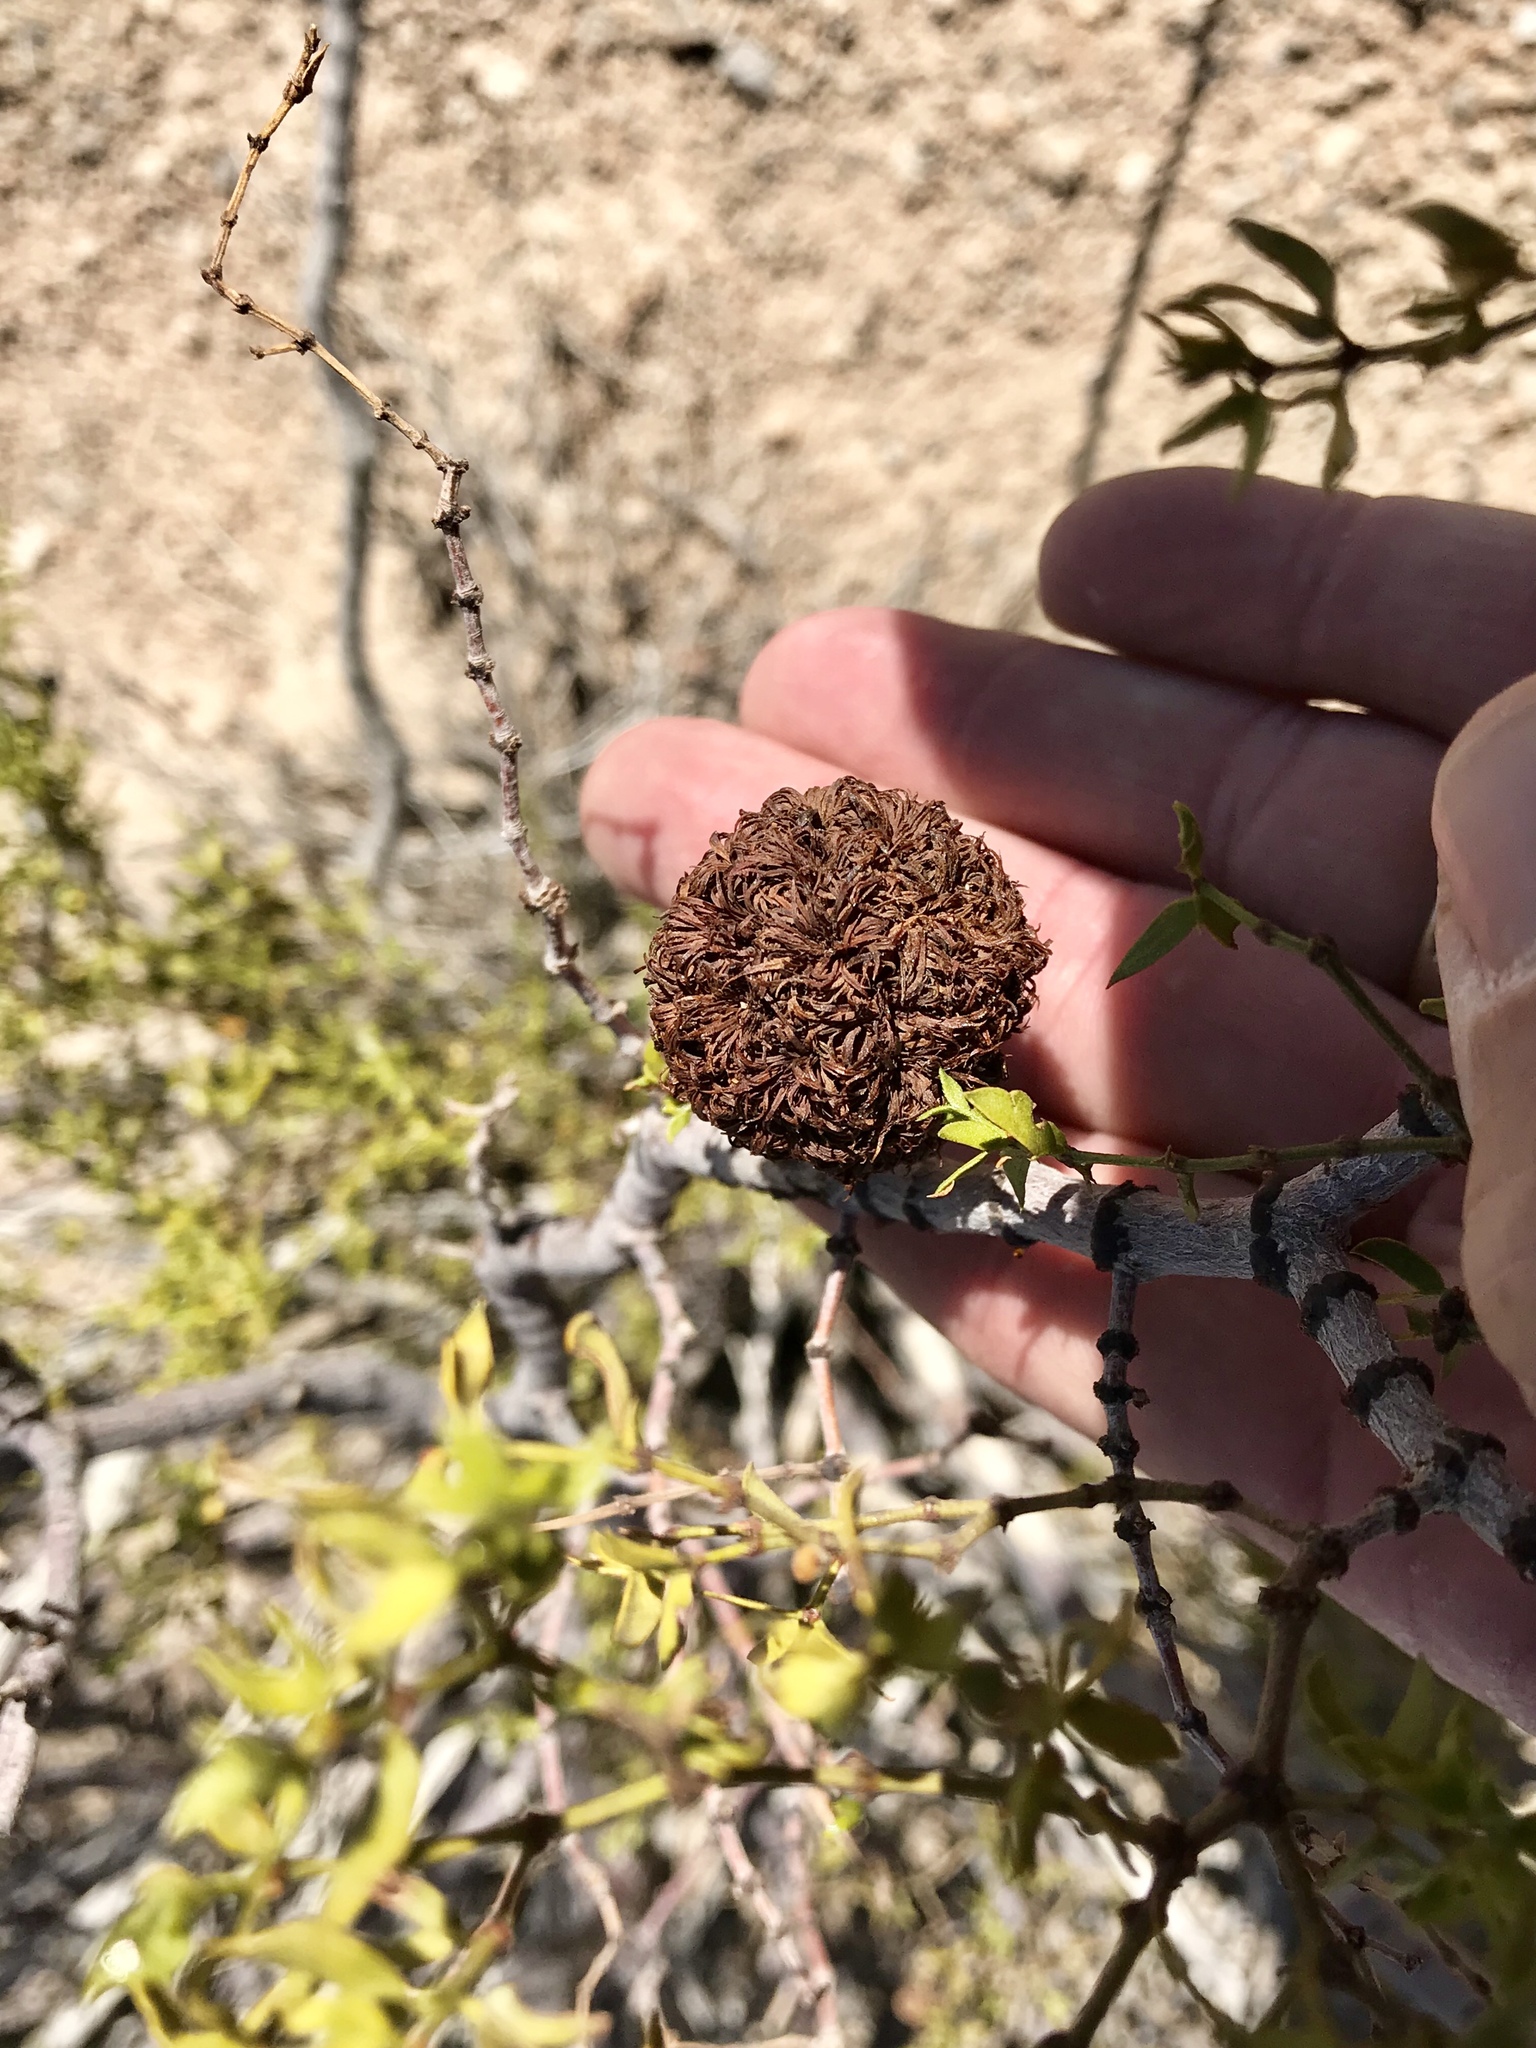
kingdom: Animalia
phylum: Arthropoda
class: Insecta
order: Diptera
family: Cecidomyiidae
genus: Asphondylia
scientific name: Asphondylia auripila
